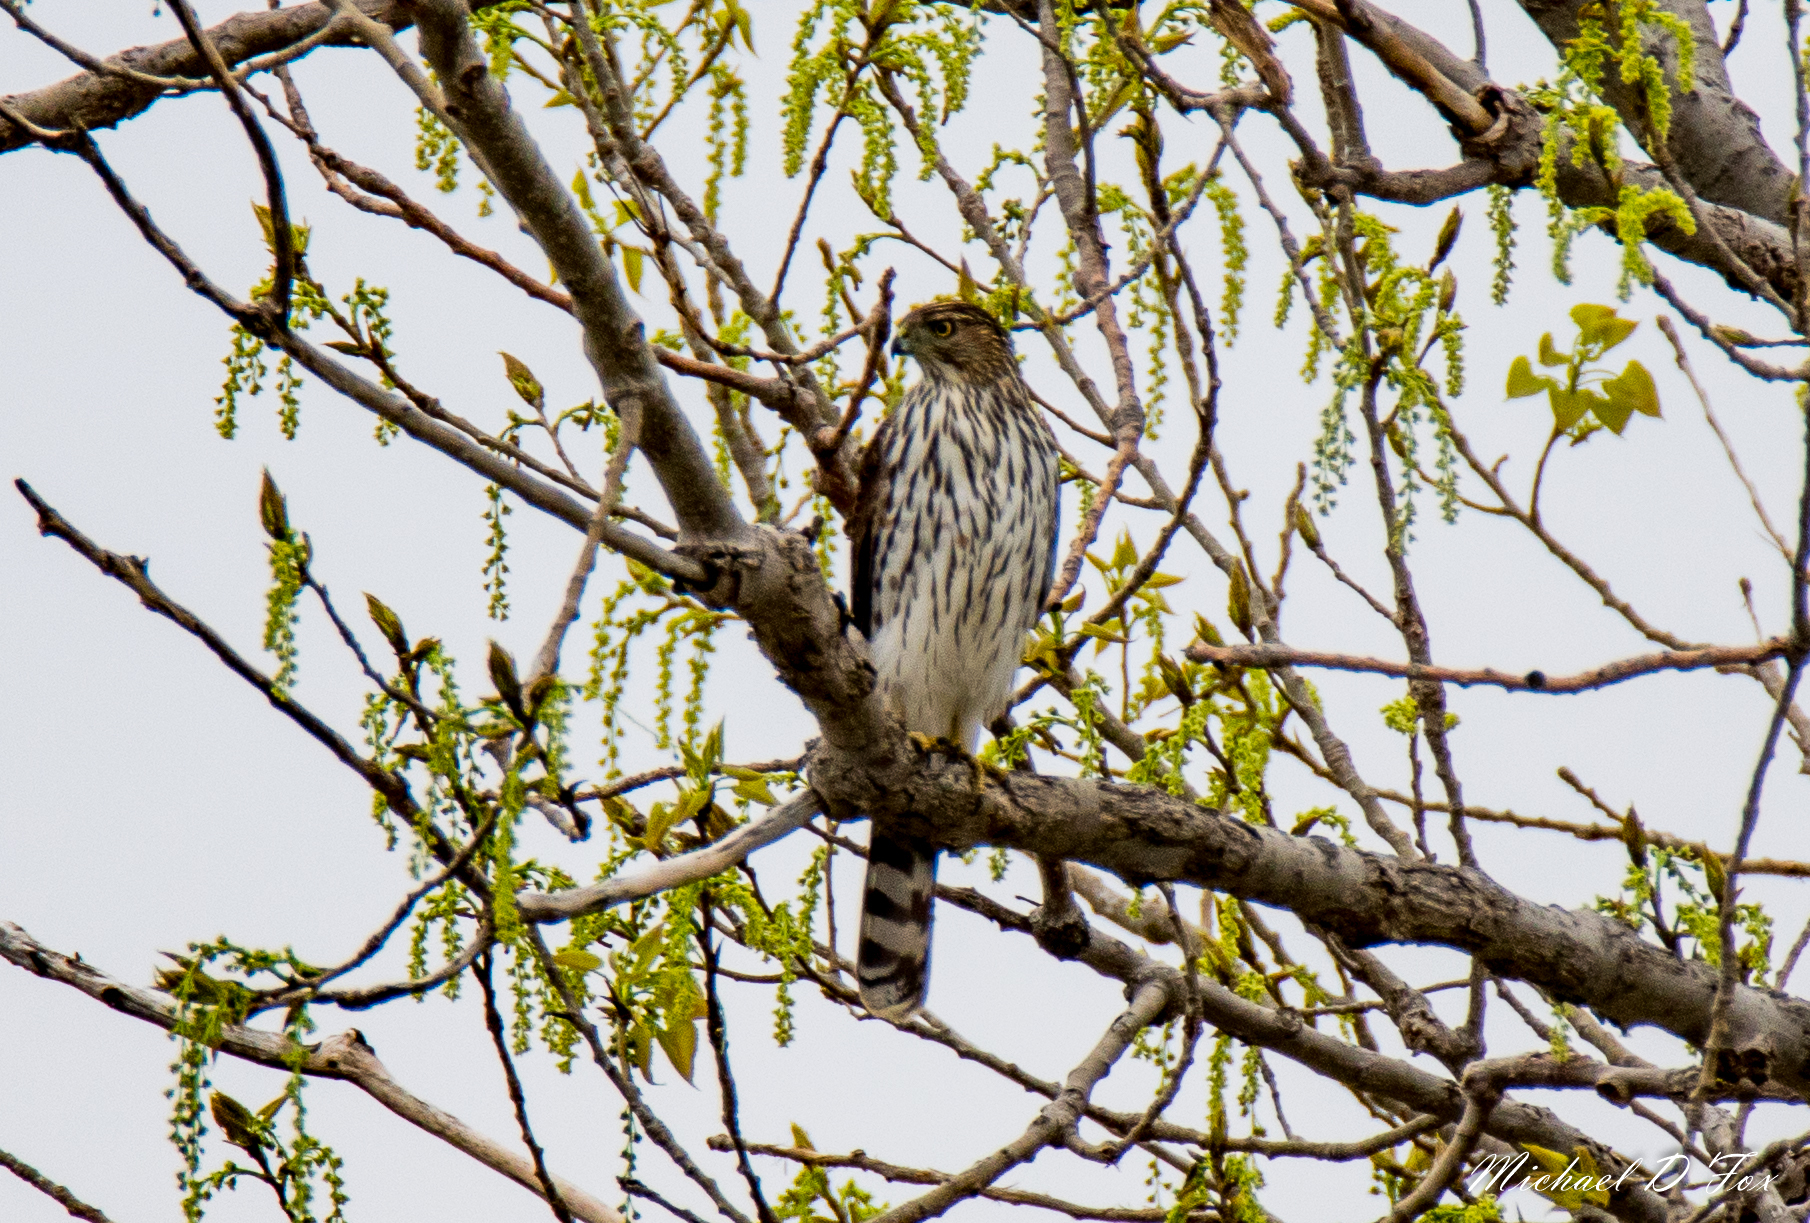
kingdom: Animalia
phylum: Chordata
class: Aves
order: Accipitriformes
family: Accipitridae
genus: Accipiter
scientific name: Accipiter cooperii
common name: Cooper's hawk
